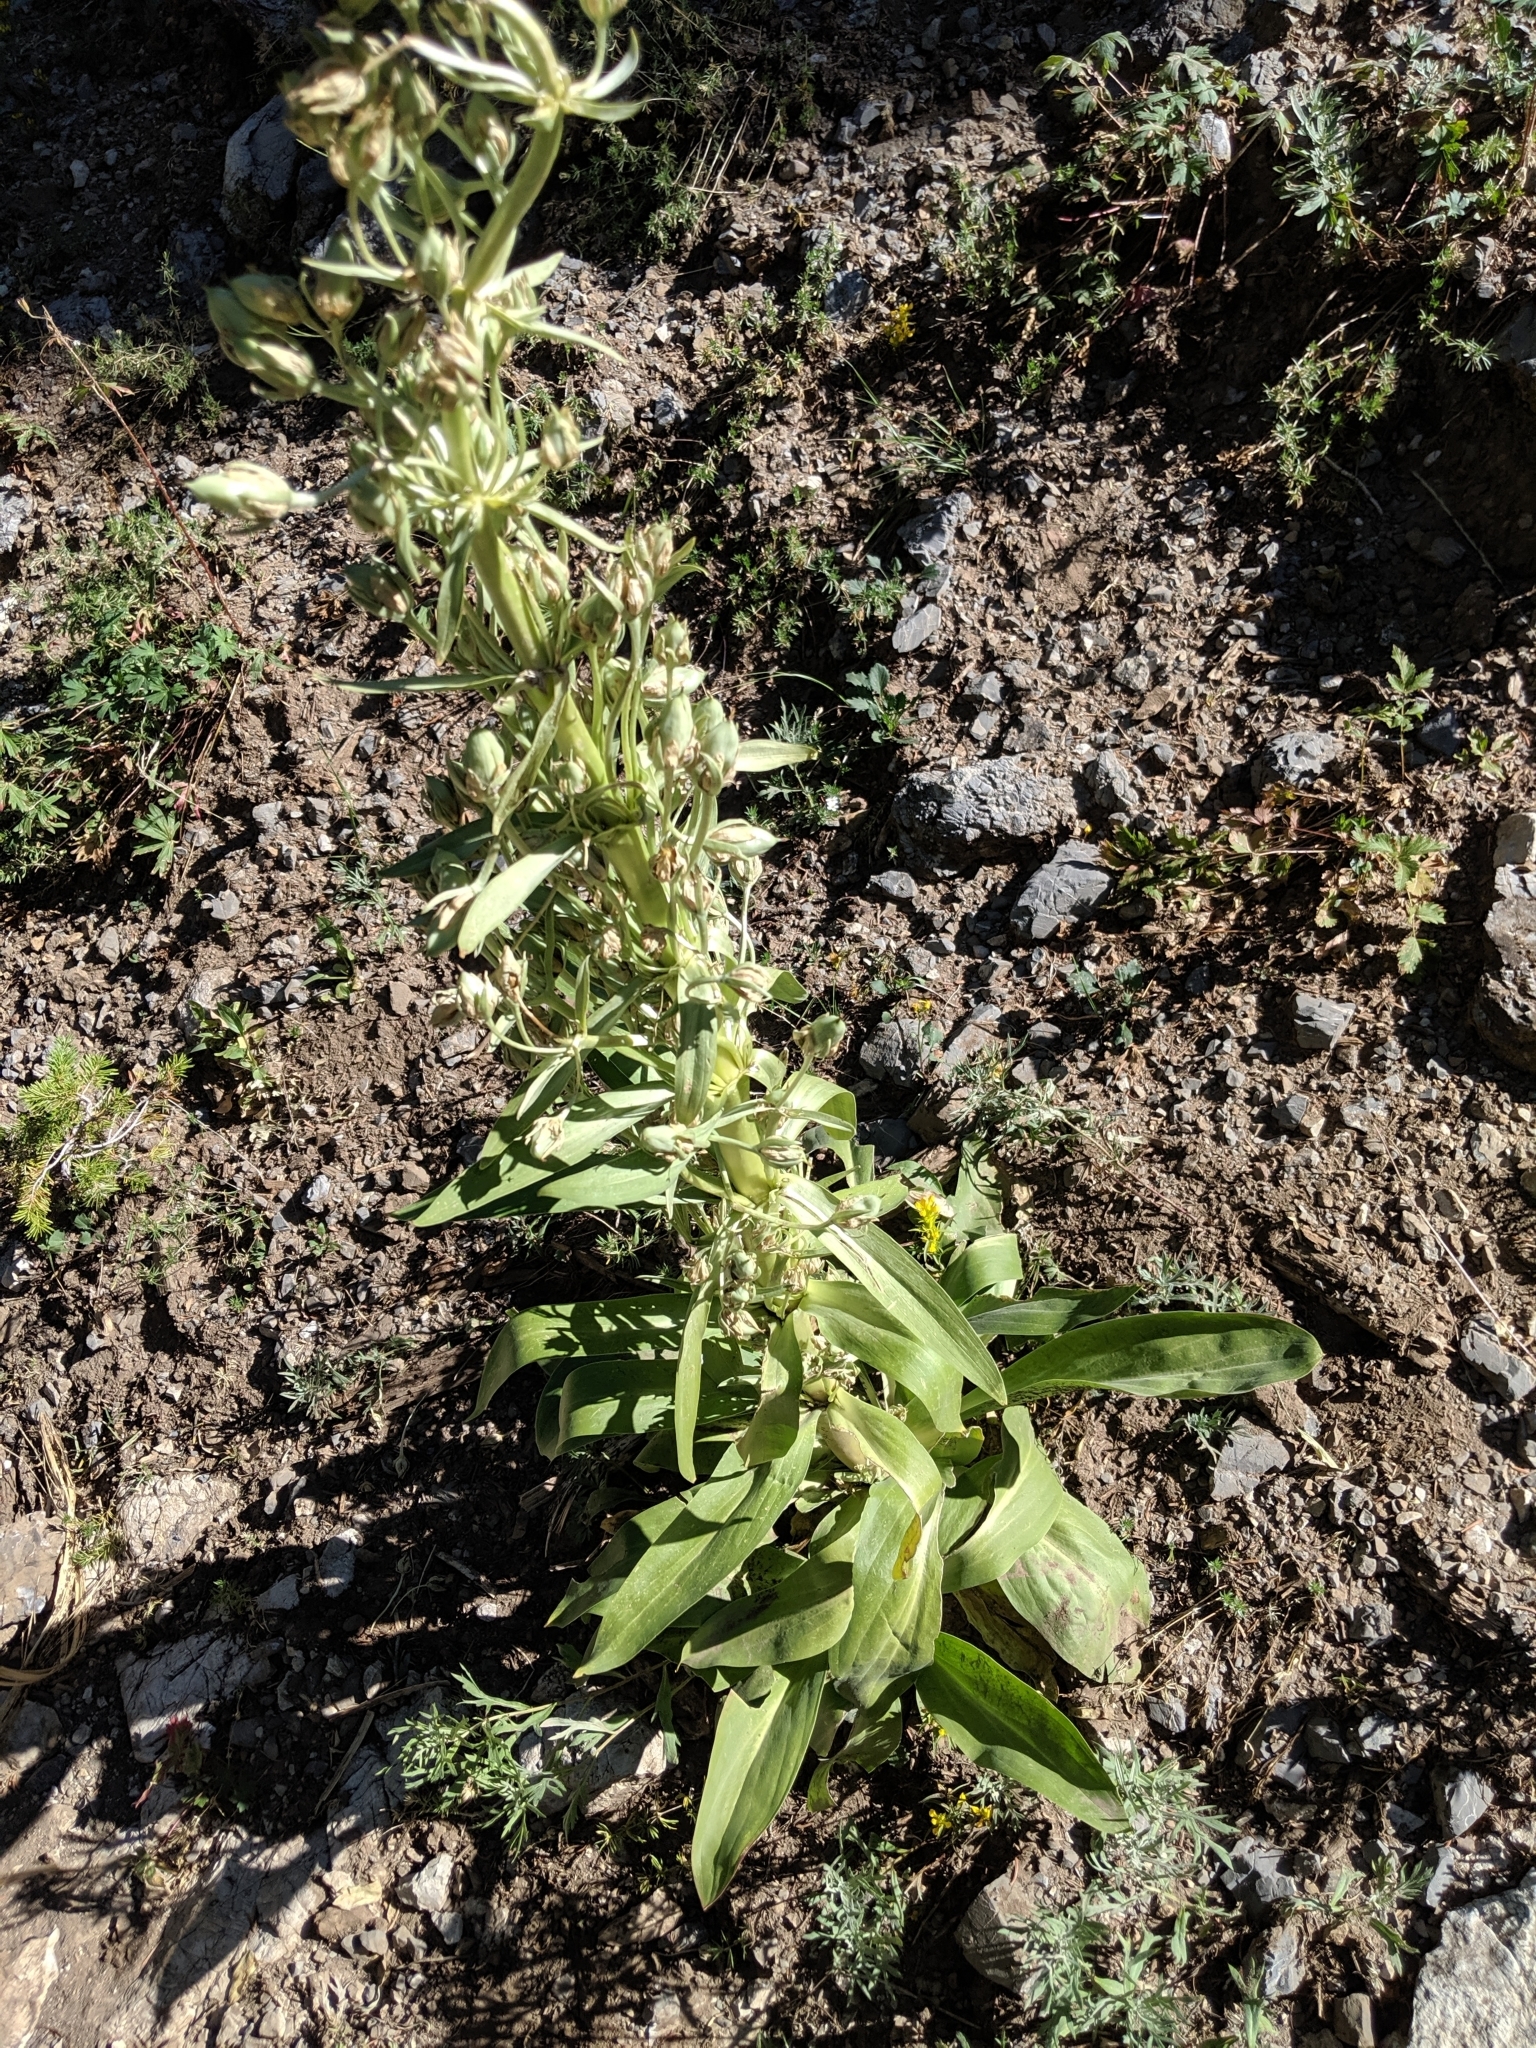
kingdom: Plantae
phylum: Tracheophyta
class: Magnoliopsida
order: Gentianales
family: Gentianaceae
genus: Frasera
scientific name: Frasera speciosa
